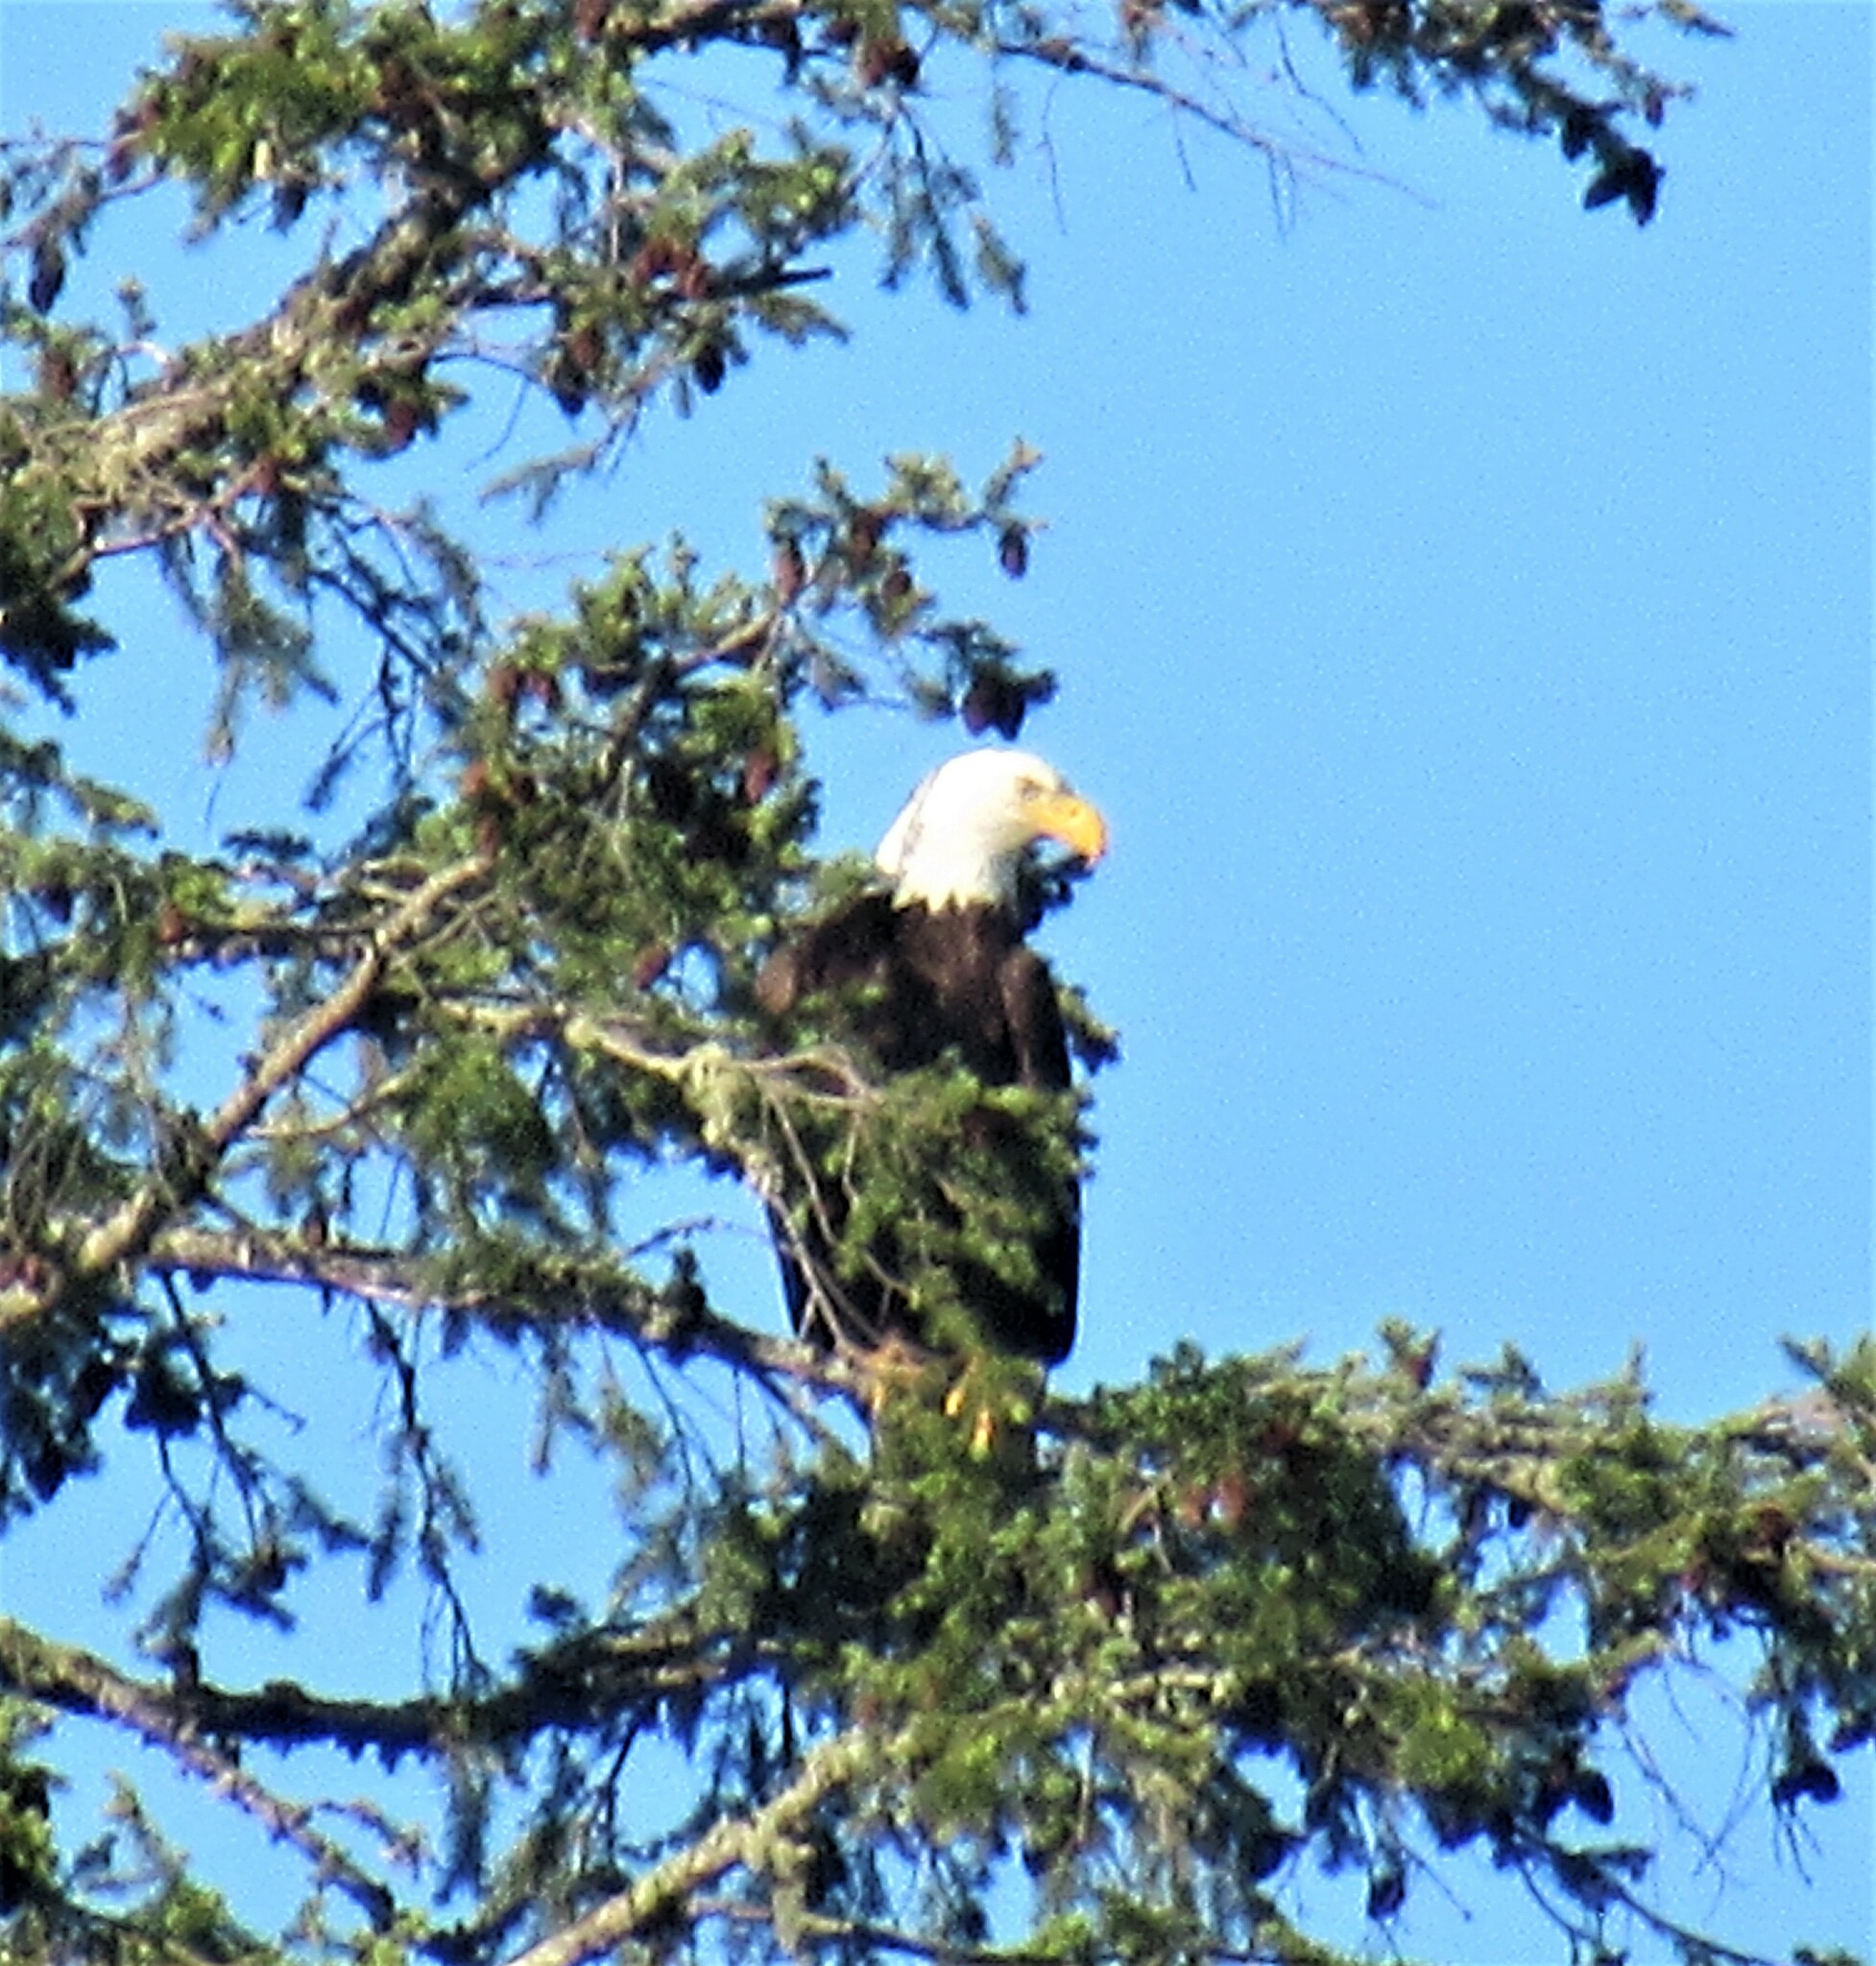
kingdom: Animalia
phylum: Chordata
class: Aves
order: Accipitriformes
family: Accipitridae
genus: Haliaeetus
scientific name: Haliaeetus leucocephalus
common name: Bald eagle
